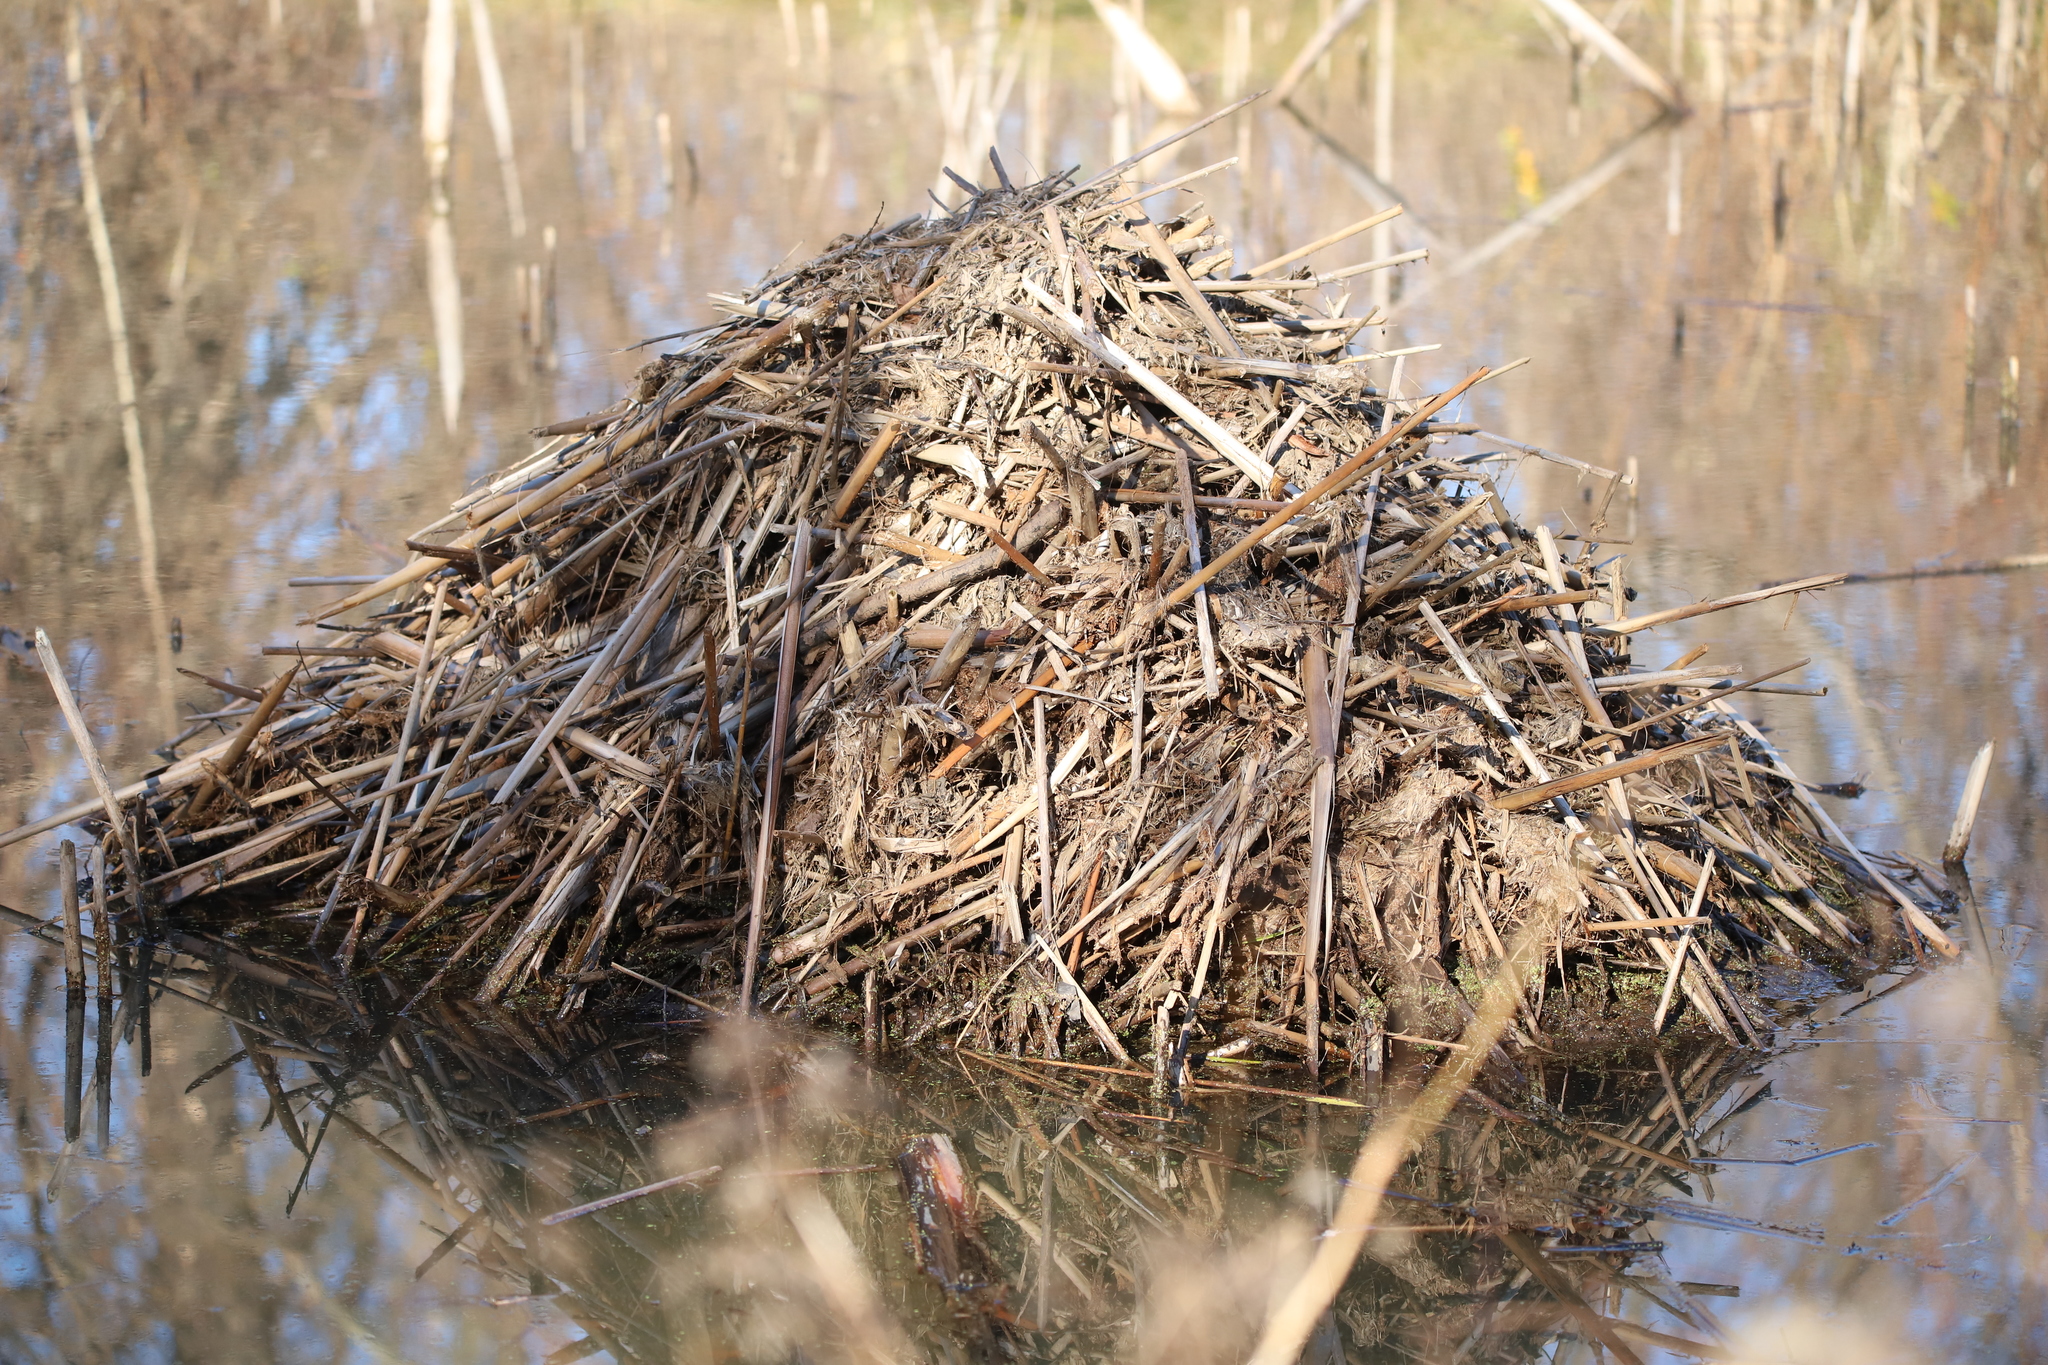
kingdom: Animalia
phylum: Chordata
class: Mammalia
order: Rodentia
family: Cricetidae
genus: Ondatra
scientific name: Ondatra zibethicus
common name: Muskrat
